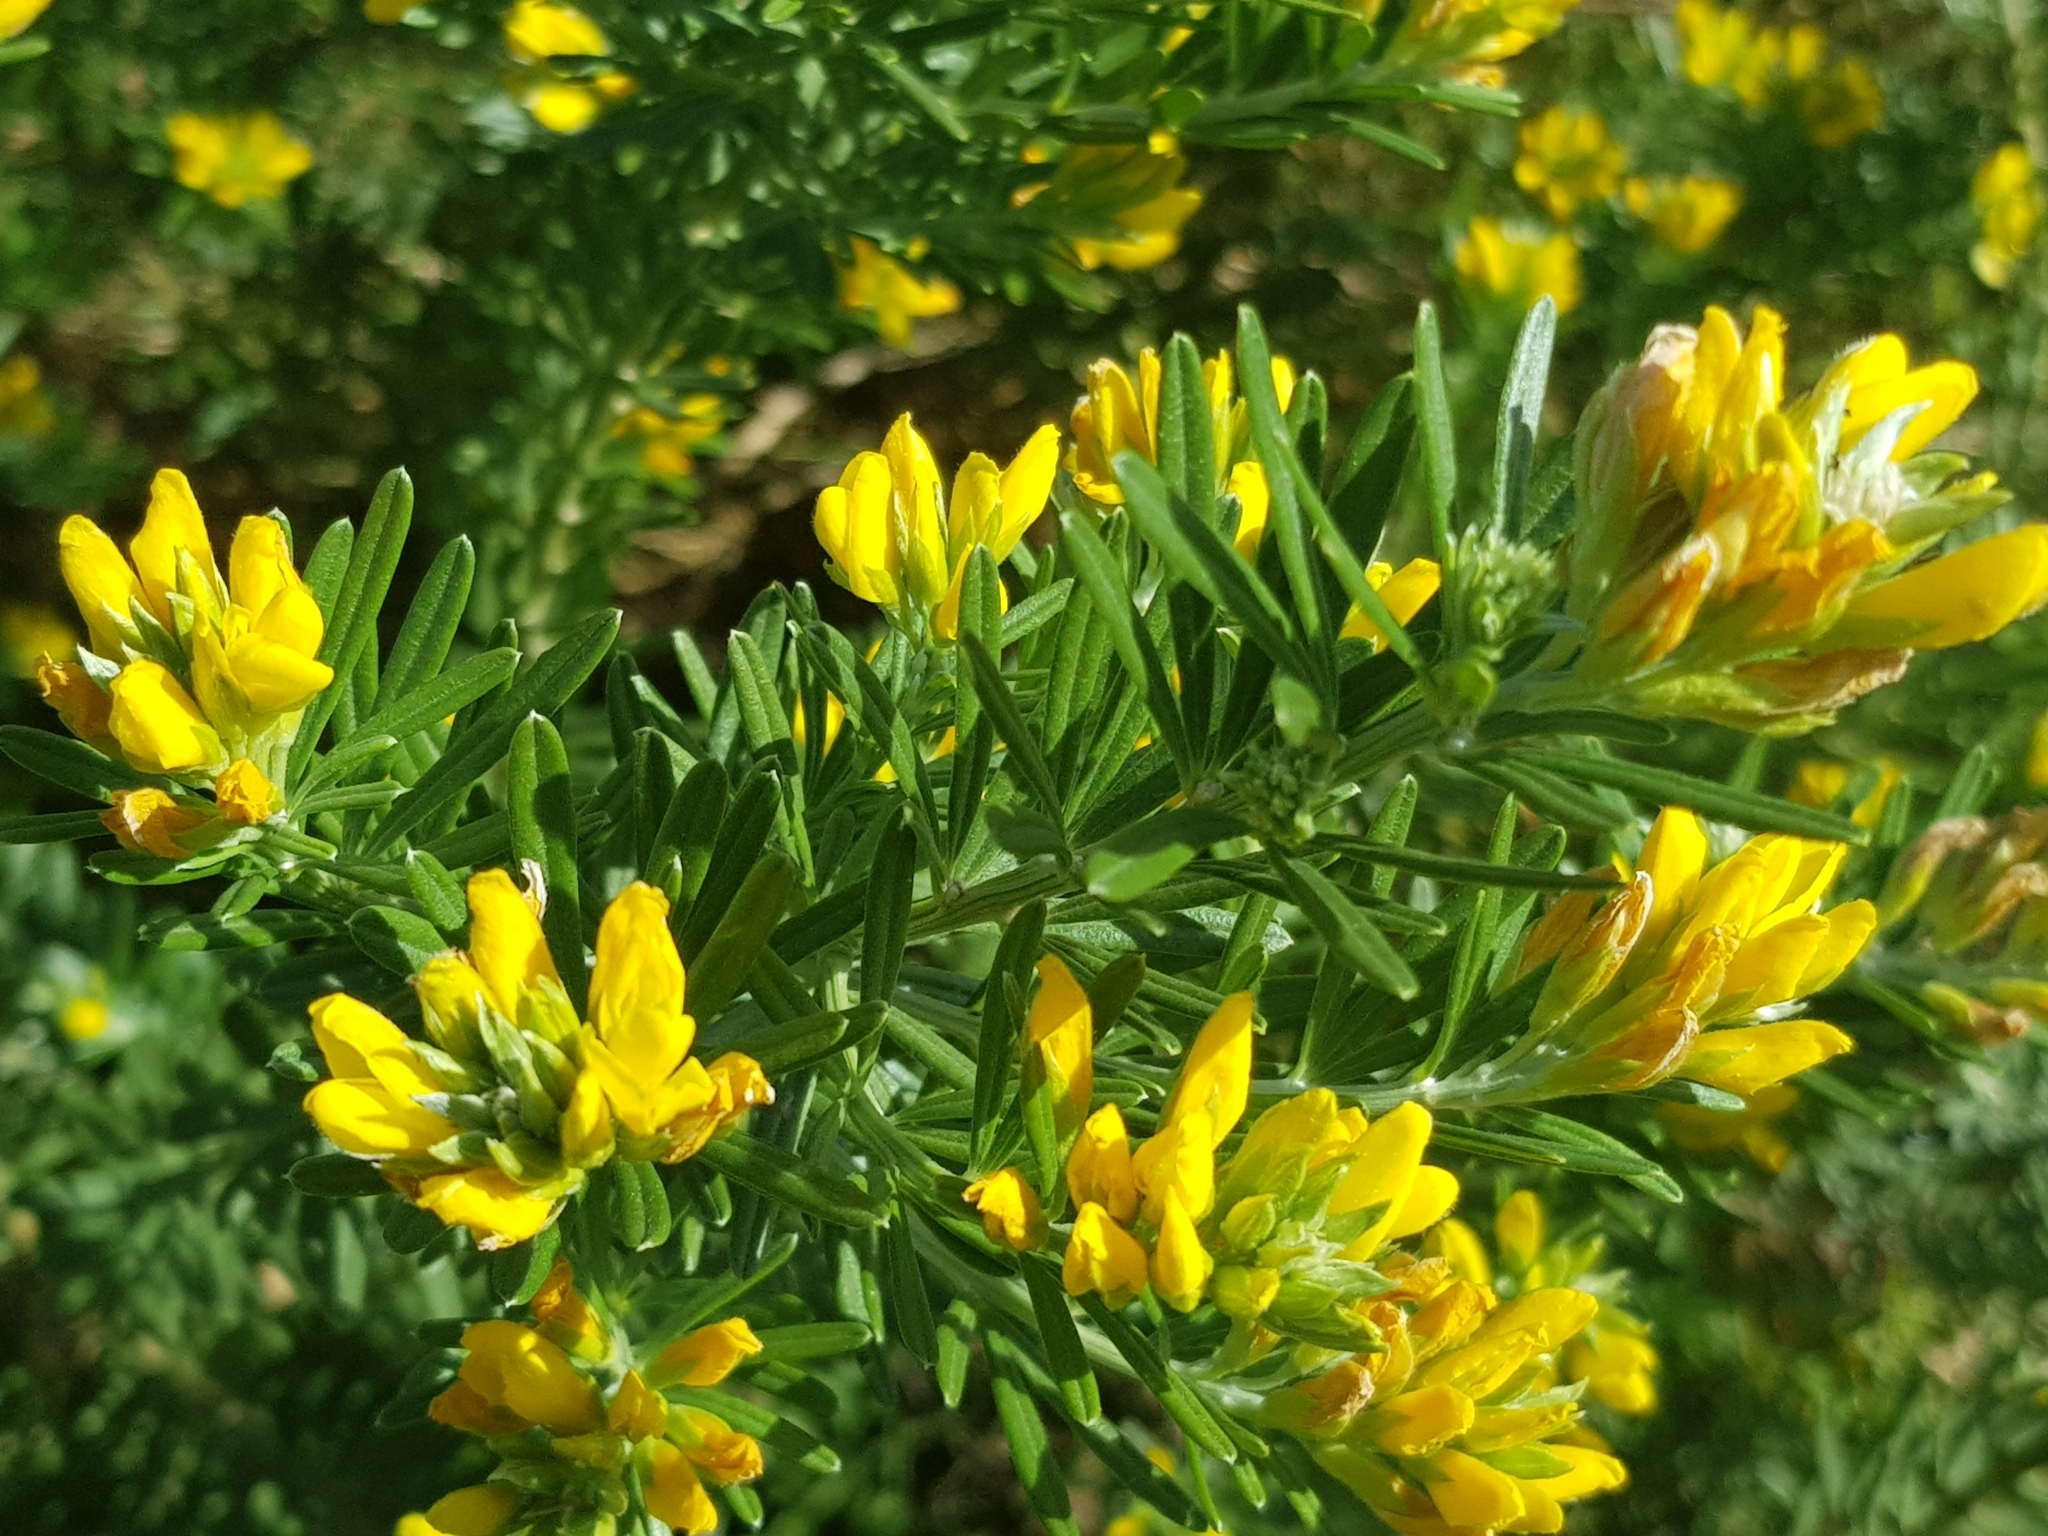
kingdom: Plantae
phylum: Tracheophyta
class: Magnoliopsida
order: Fabales
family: Fabaceae
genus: Genista
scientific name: Genista linifolia
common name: Mediterranean broom
